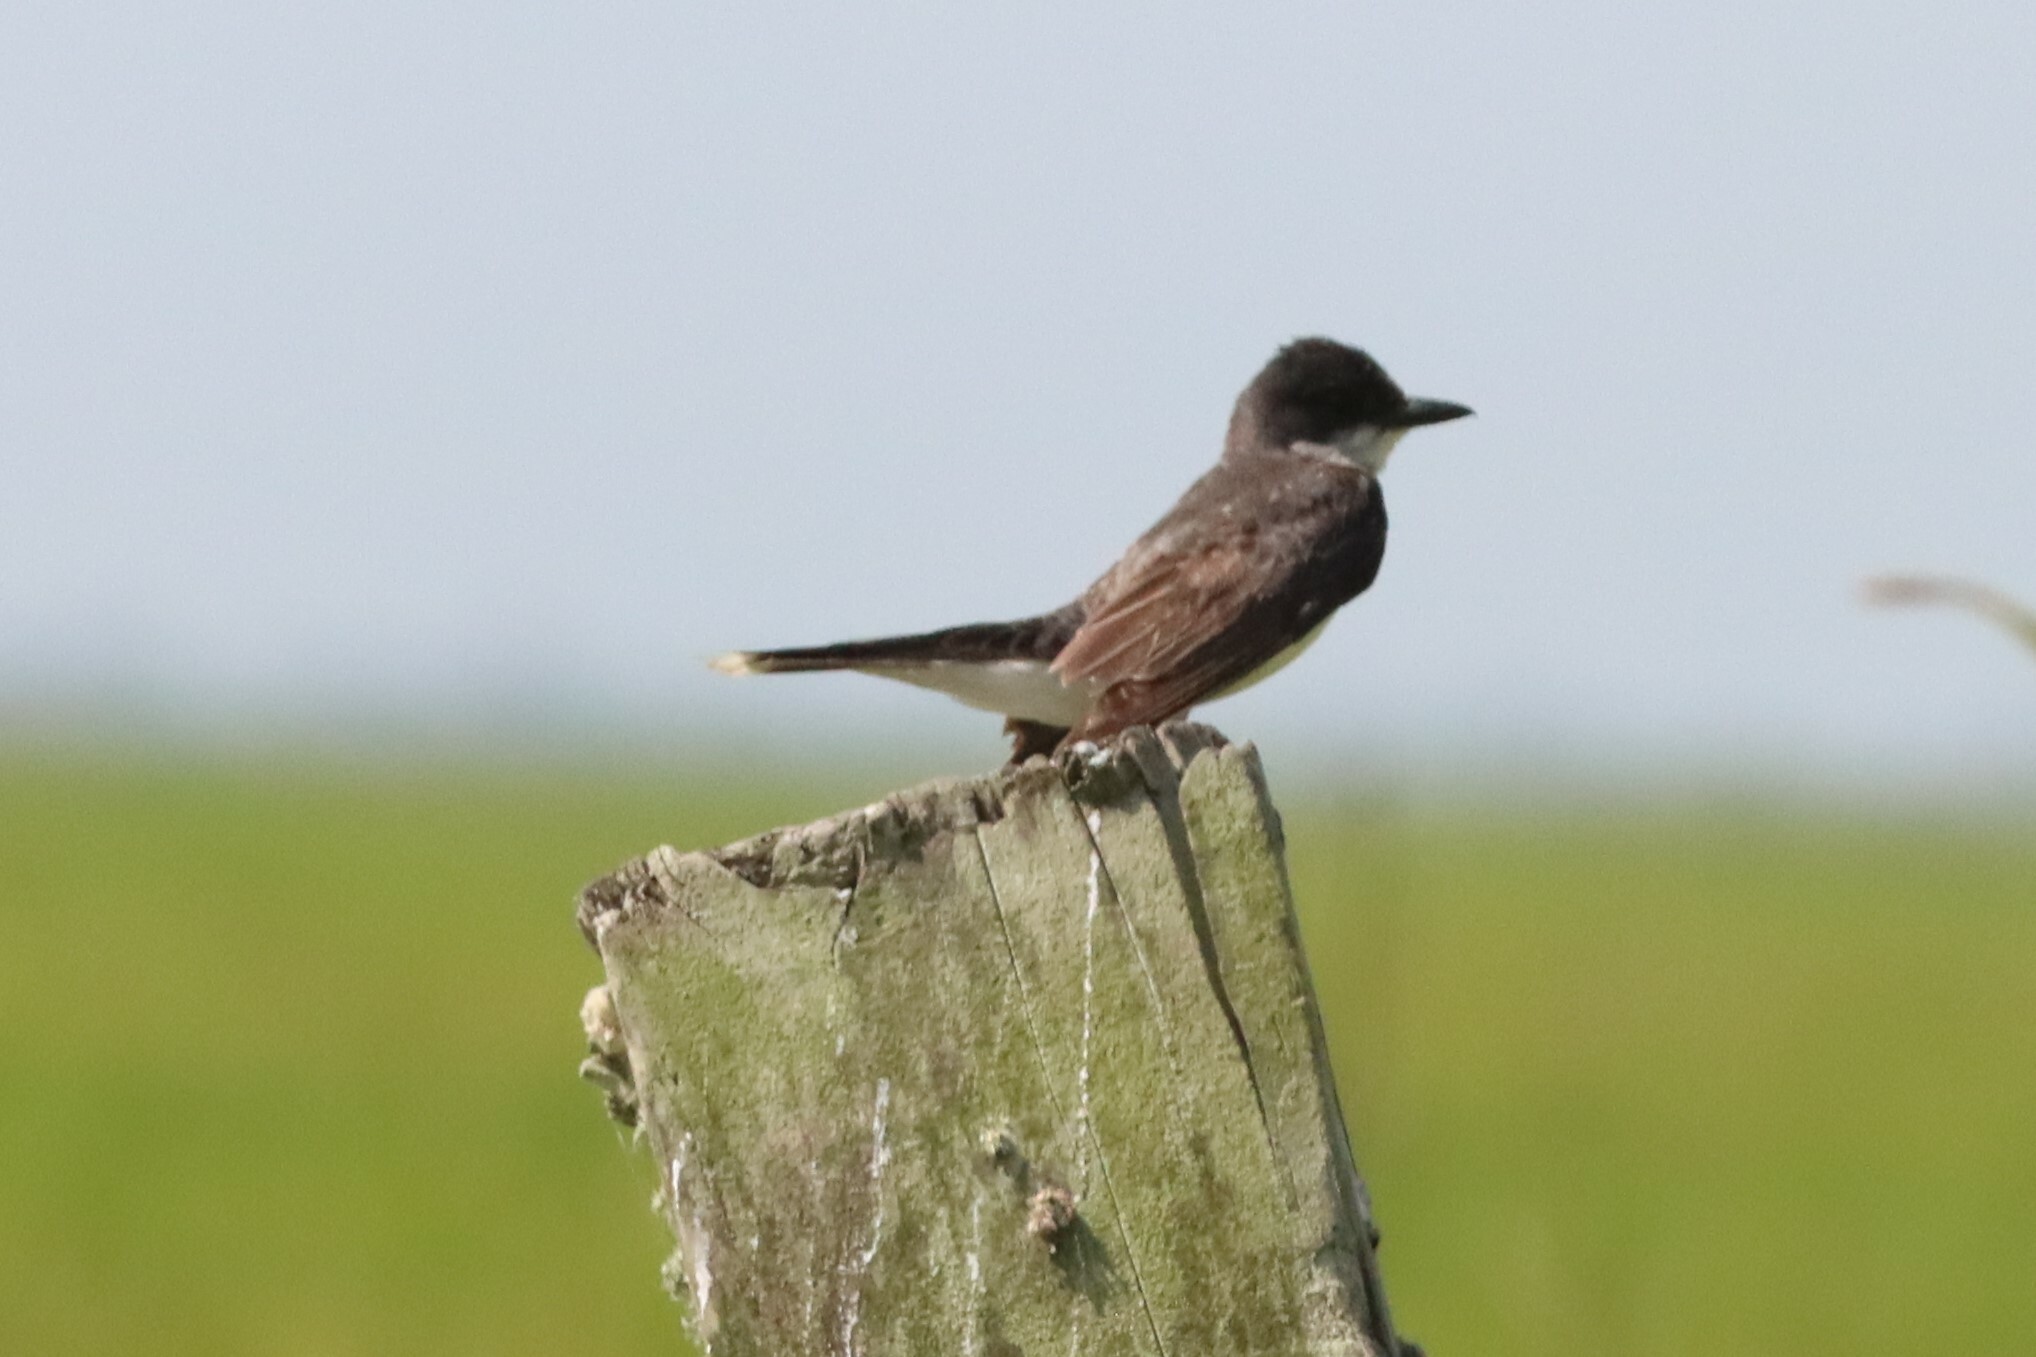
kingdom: Animalia
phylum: Chordata
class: Aves
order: Passeriformes
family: Tyrannidae
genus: Tyrannus
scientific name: Tyrannus tyrannus
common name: Eastern kingbird
